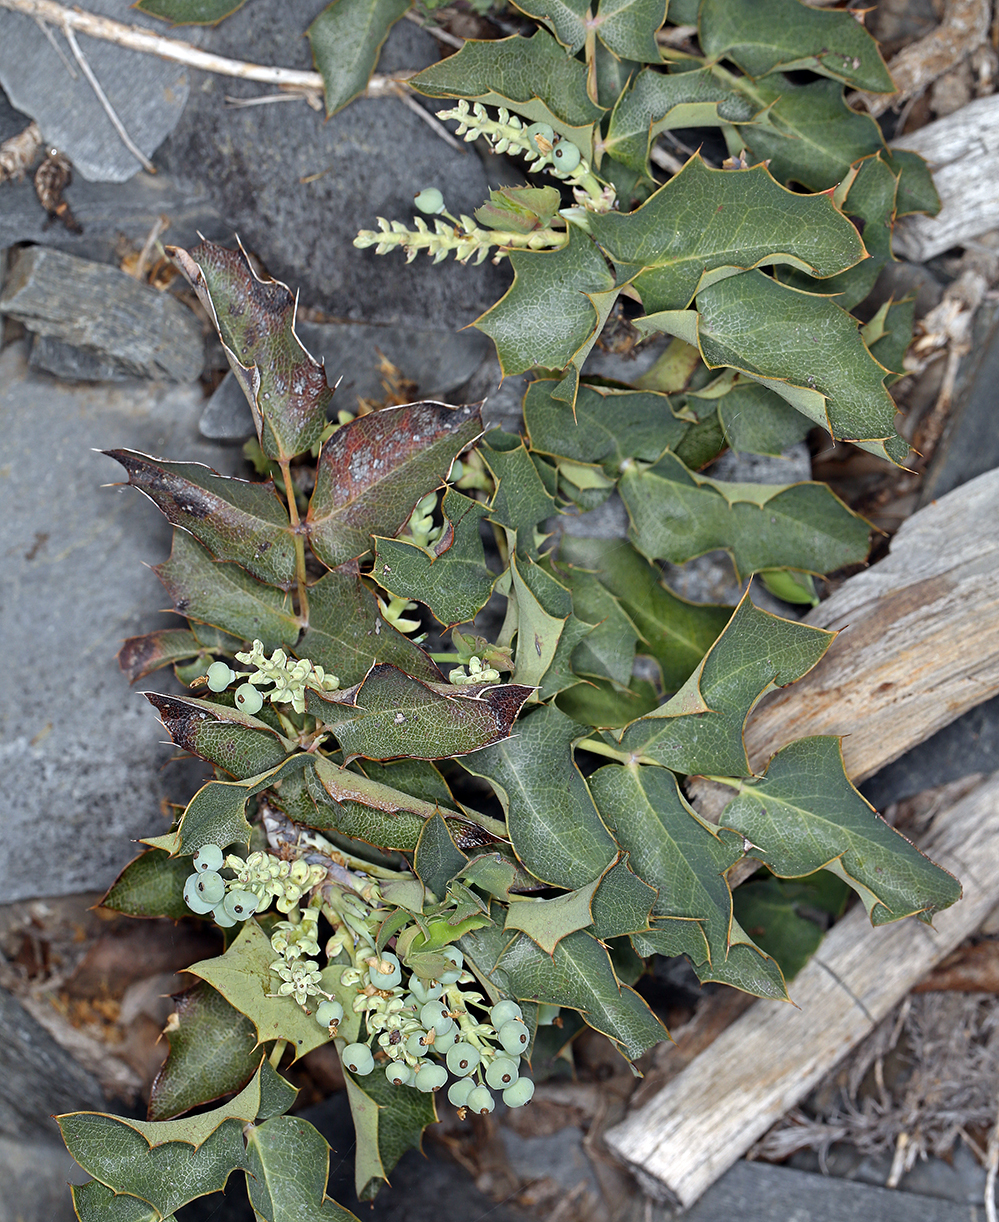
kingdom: Plantae
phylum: Tracheophyta
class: Magnoliopsida
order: Ranunculales
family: Berberidaceae
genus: Mahonia
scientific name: Mahonia repens
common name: Creeping oregon-grape
